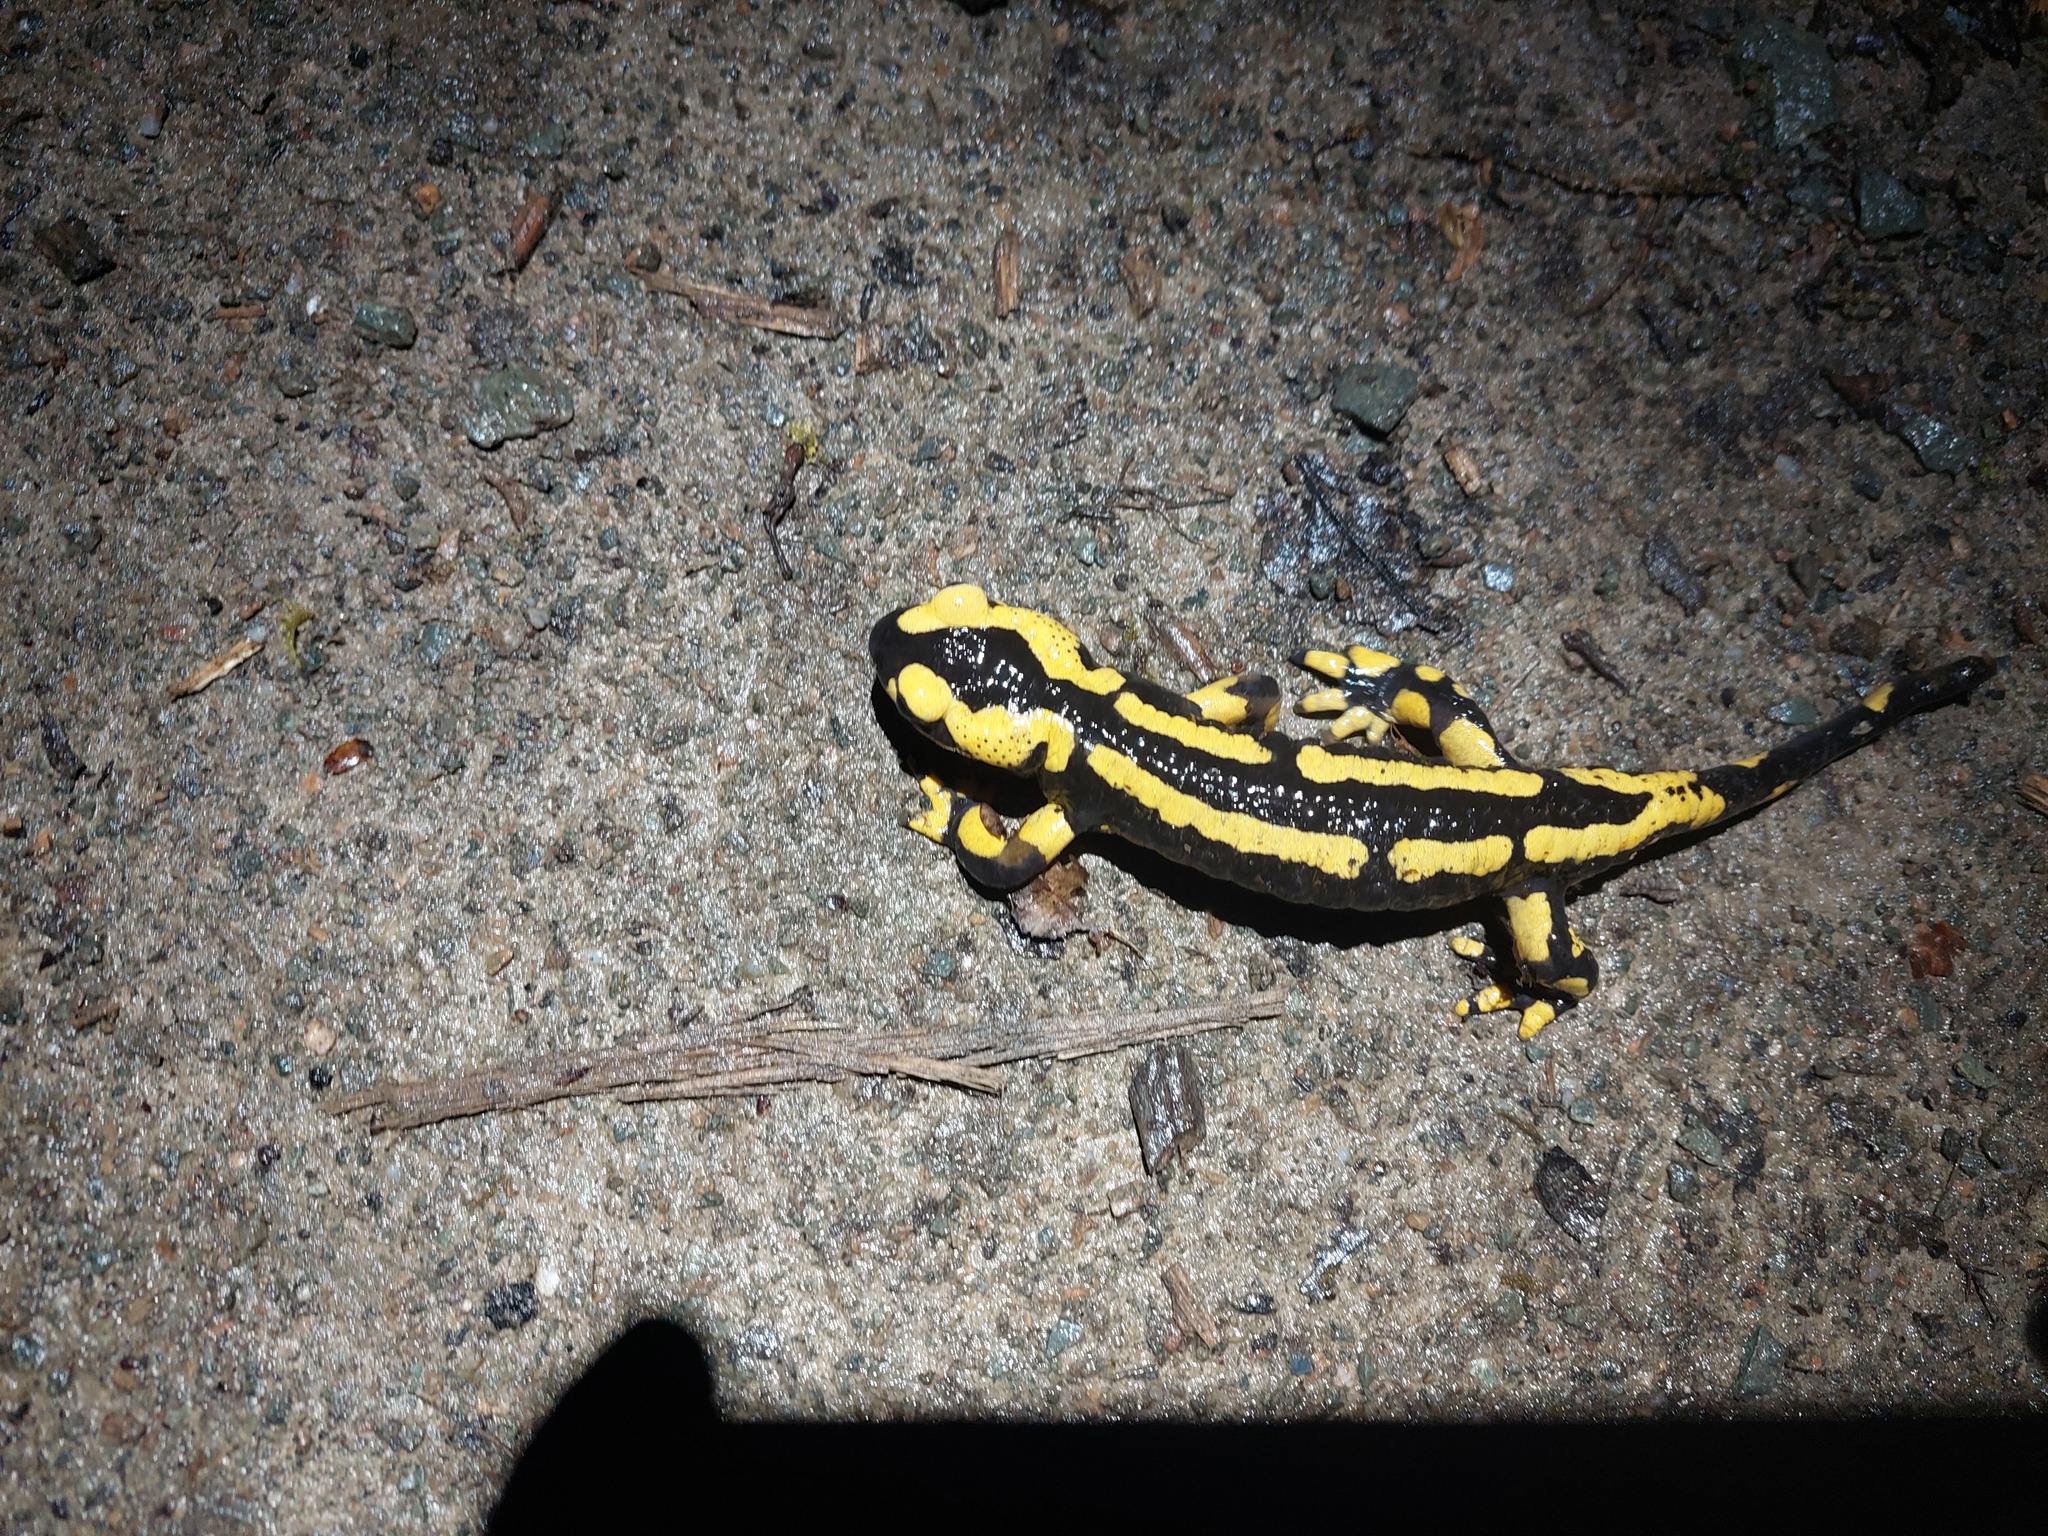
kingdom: Animalia
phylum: Chordata
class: Amphibia
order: Caudata
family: Salamandridae
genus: Salamandra
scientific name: Salamandra salamandra
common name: Fire salamander
